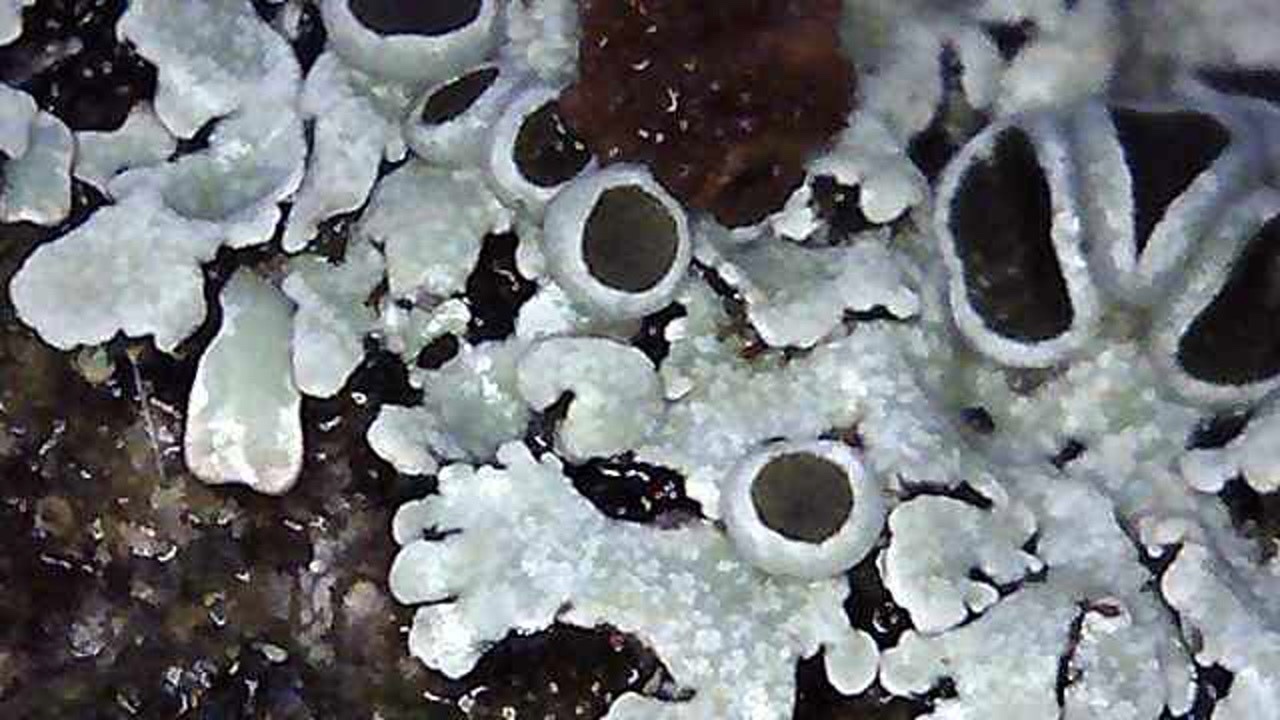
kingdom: Fungi
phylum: Ascomycota
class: Lecanoromycetes
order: Caliciales
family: Physciaceae
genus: Physcia
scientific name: Physcia aipolia
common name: Hoary rosette lichen
